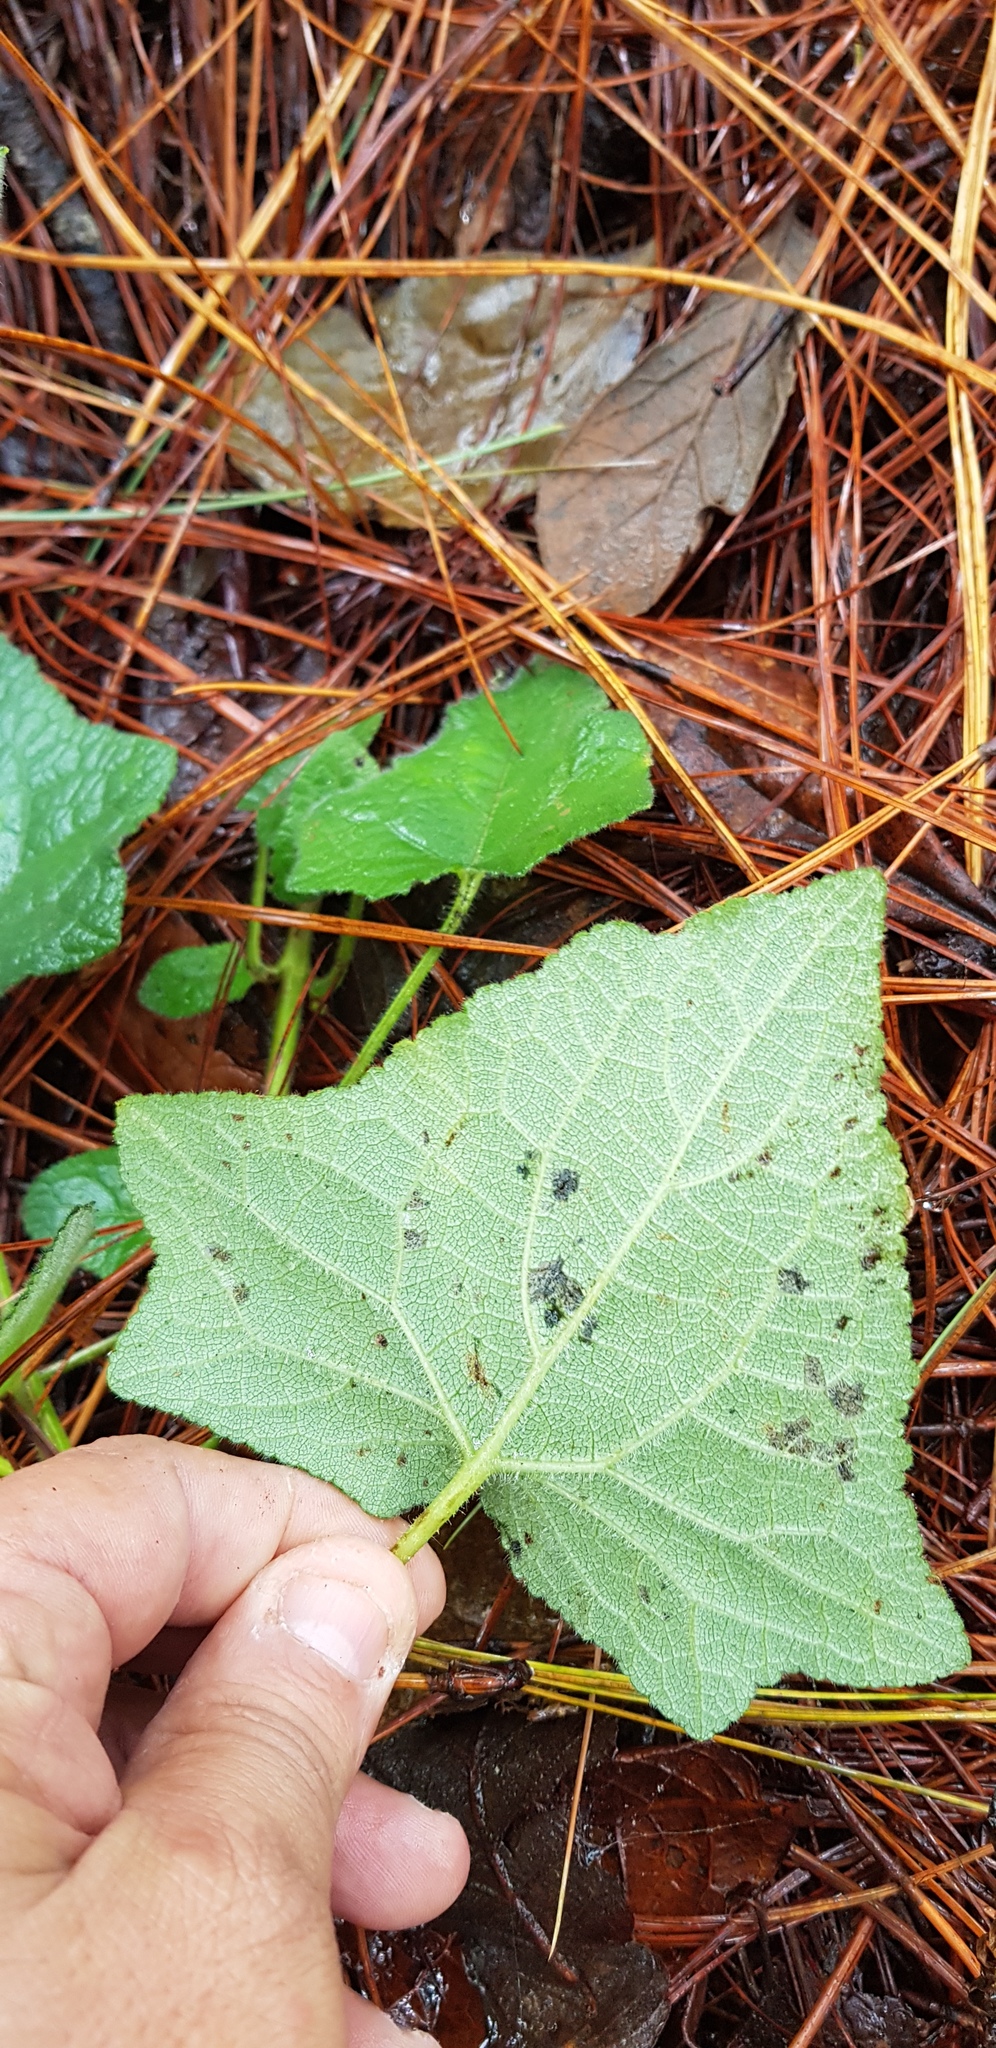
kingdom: Plantae
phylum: Tracheophyta
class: Magnoliopsida
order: Lamiales
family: Lamiaceae
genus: Salvia
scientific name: Salvia vitifolia
